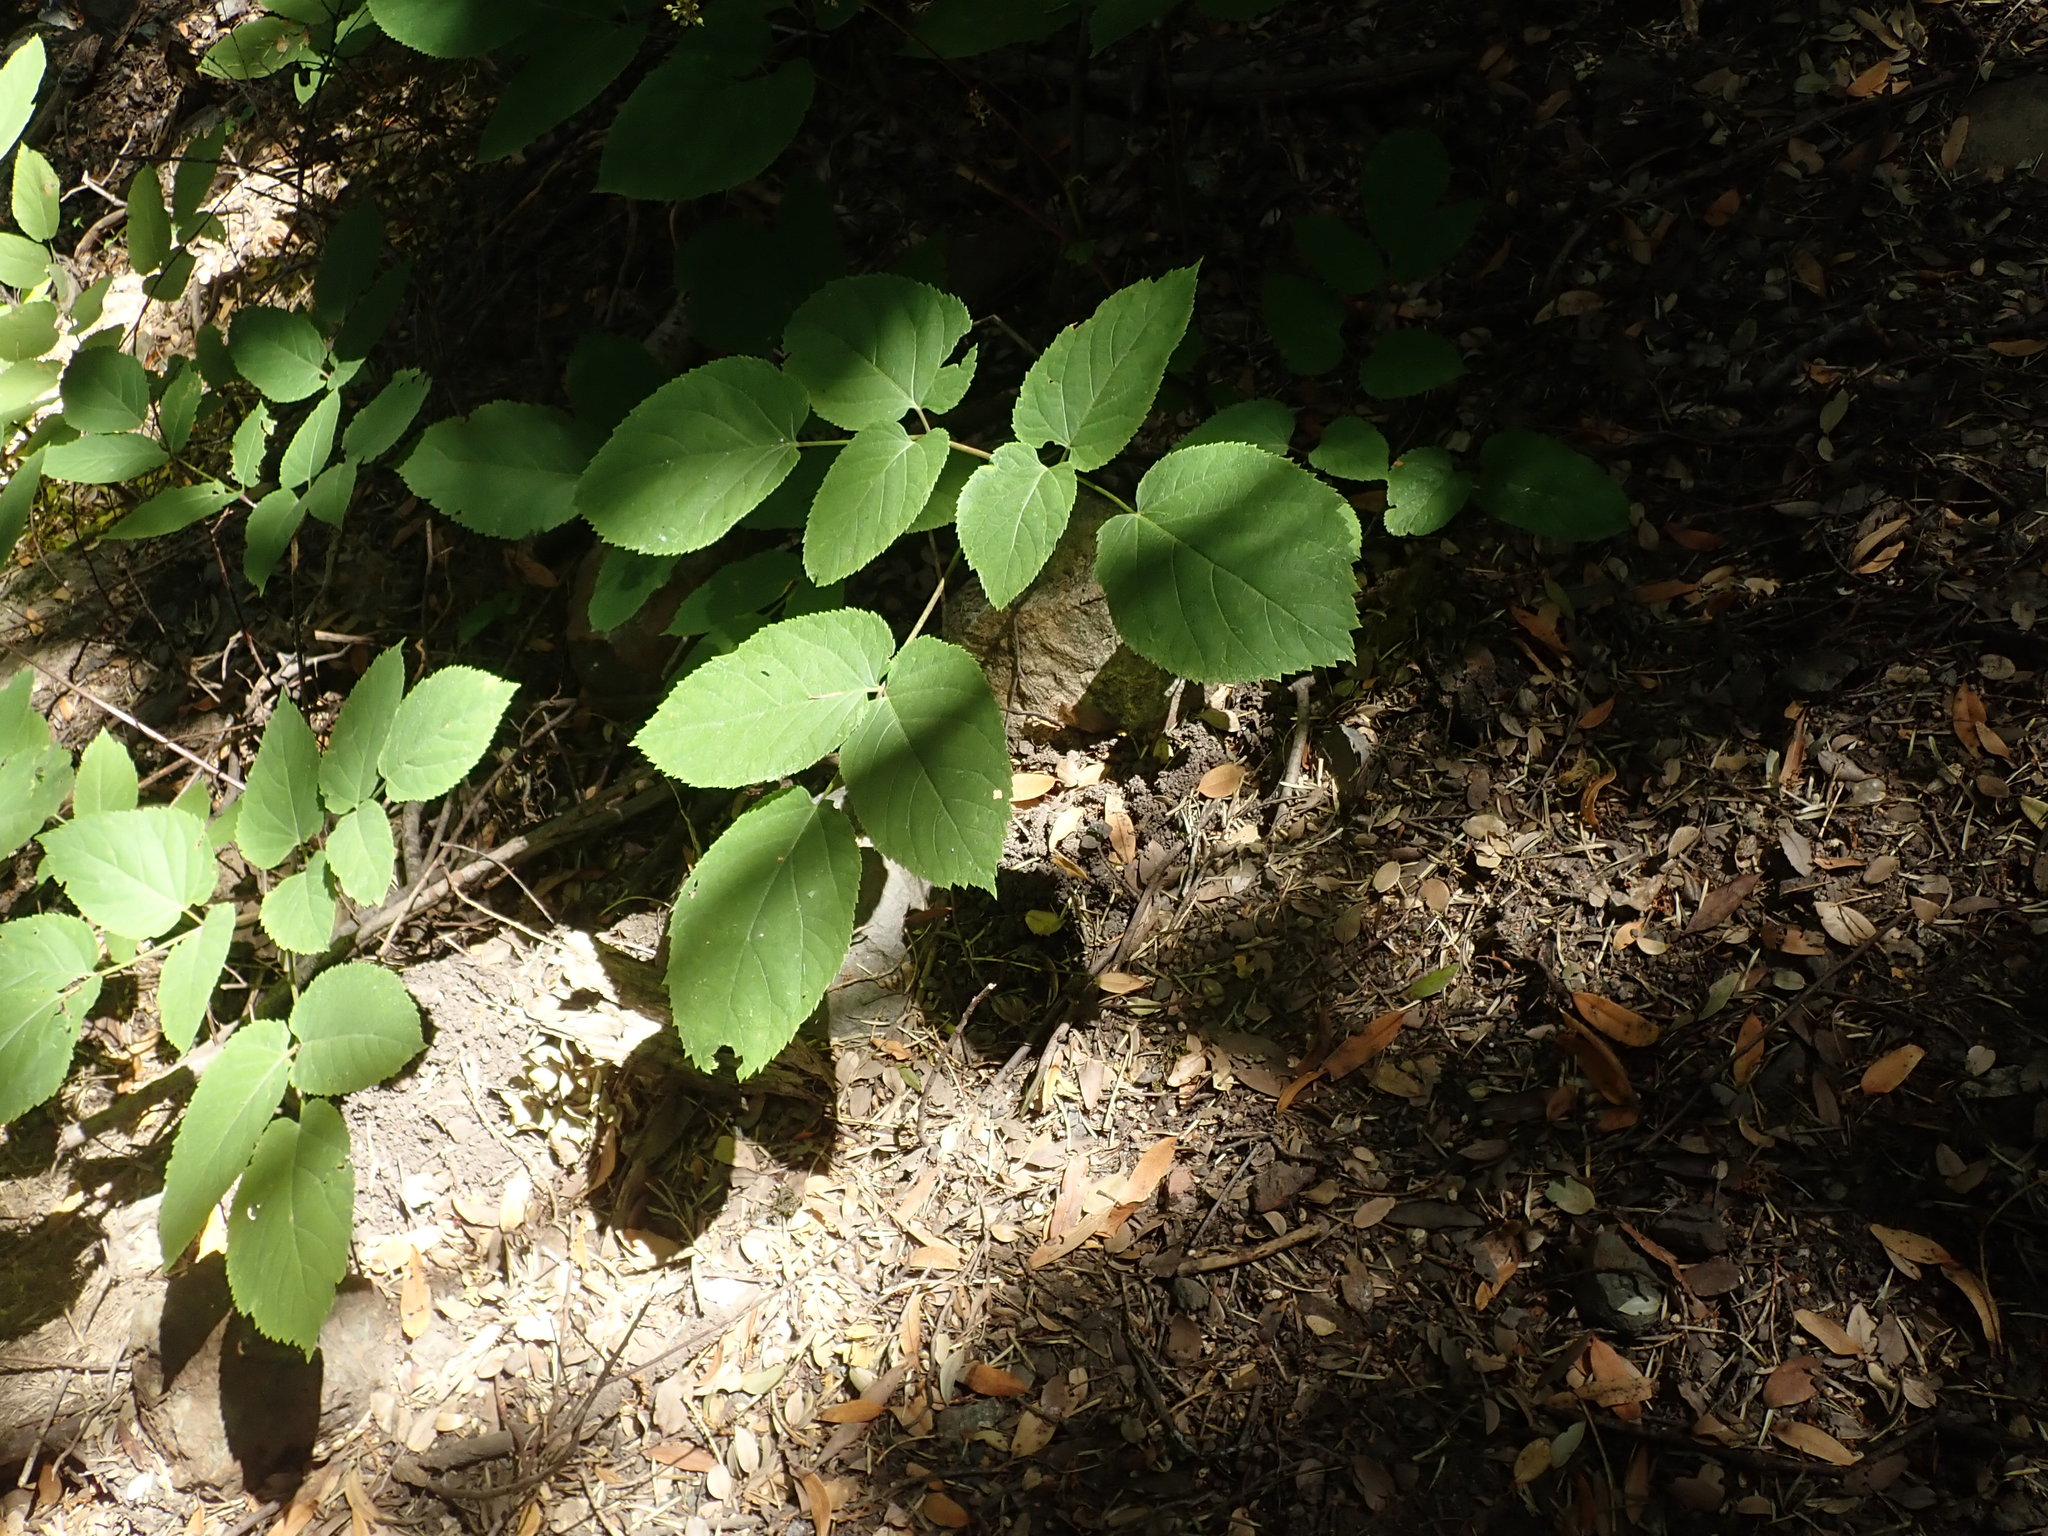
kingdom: Plantae
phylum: Tracheophyta
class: Magnoliopsida
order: Apiales
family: Araliaceae
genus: Aralia
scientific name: Aralia californica
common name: California-ginseng
